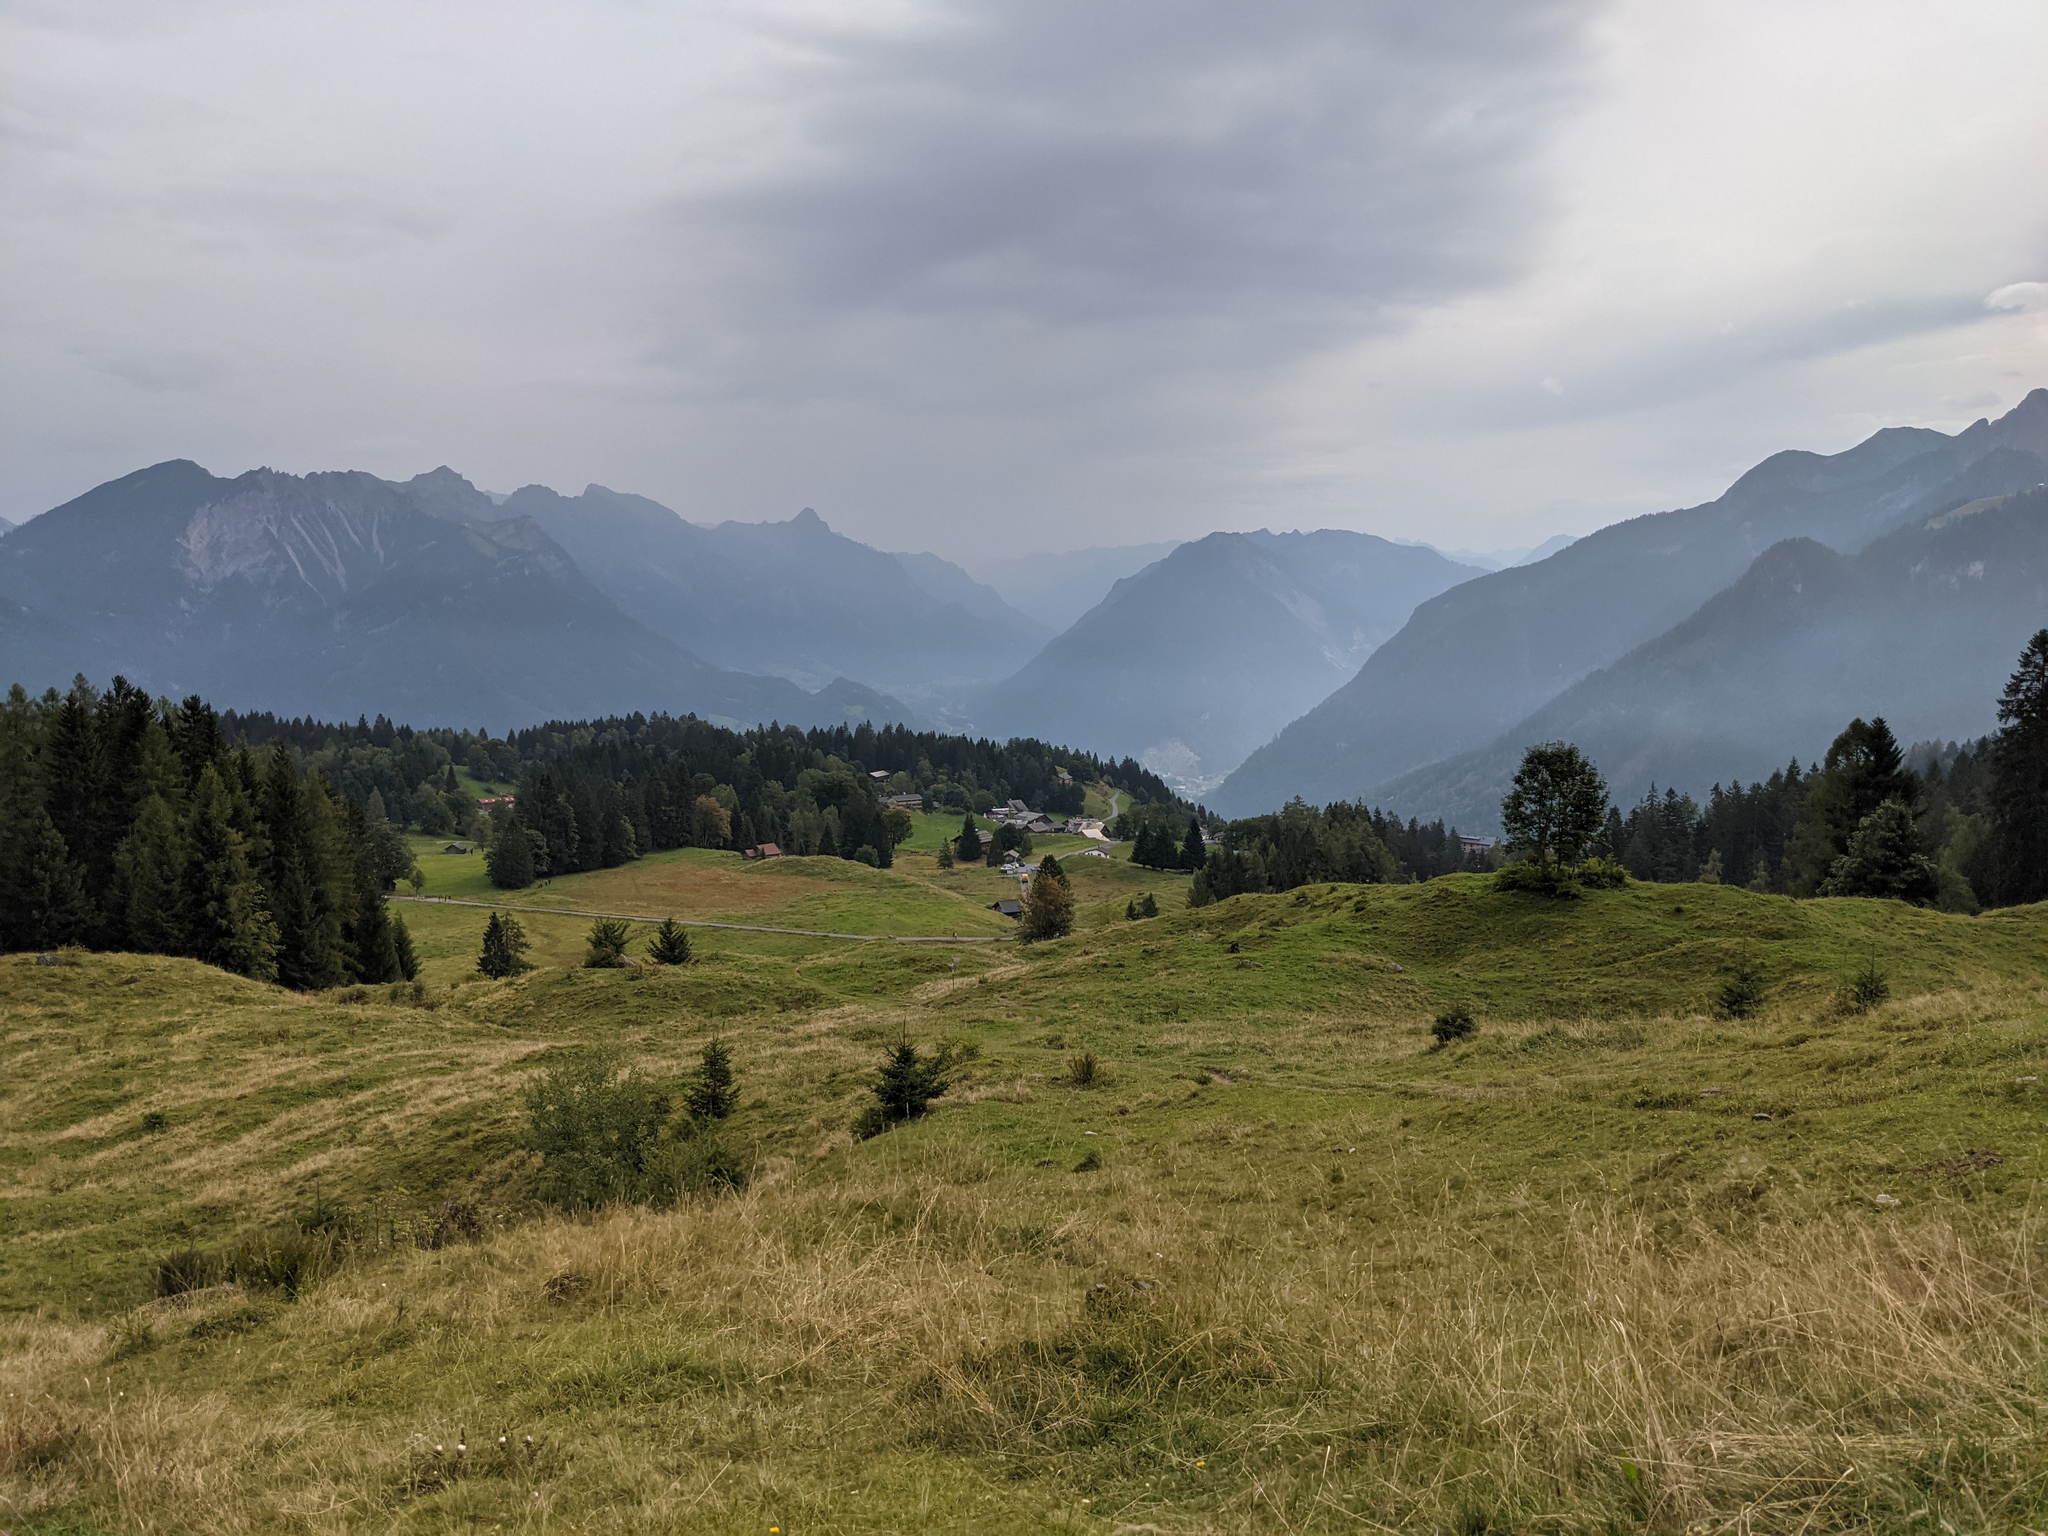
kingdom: Plantae
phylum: Tracheophyta
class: Pinopsida
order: Pinales
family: Pinaceae
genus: Picea
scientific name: Picea abies
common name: Norway spruce
